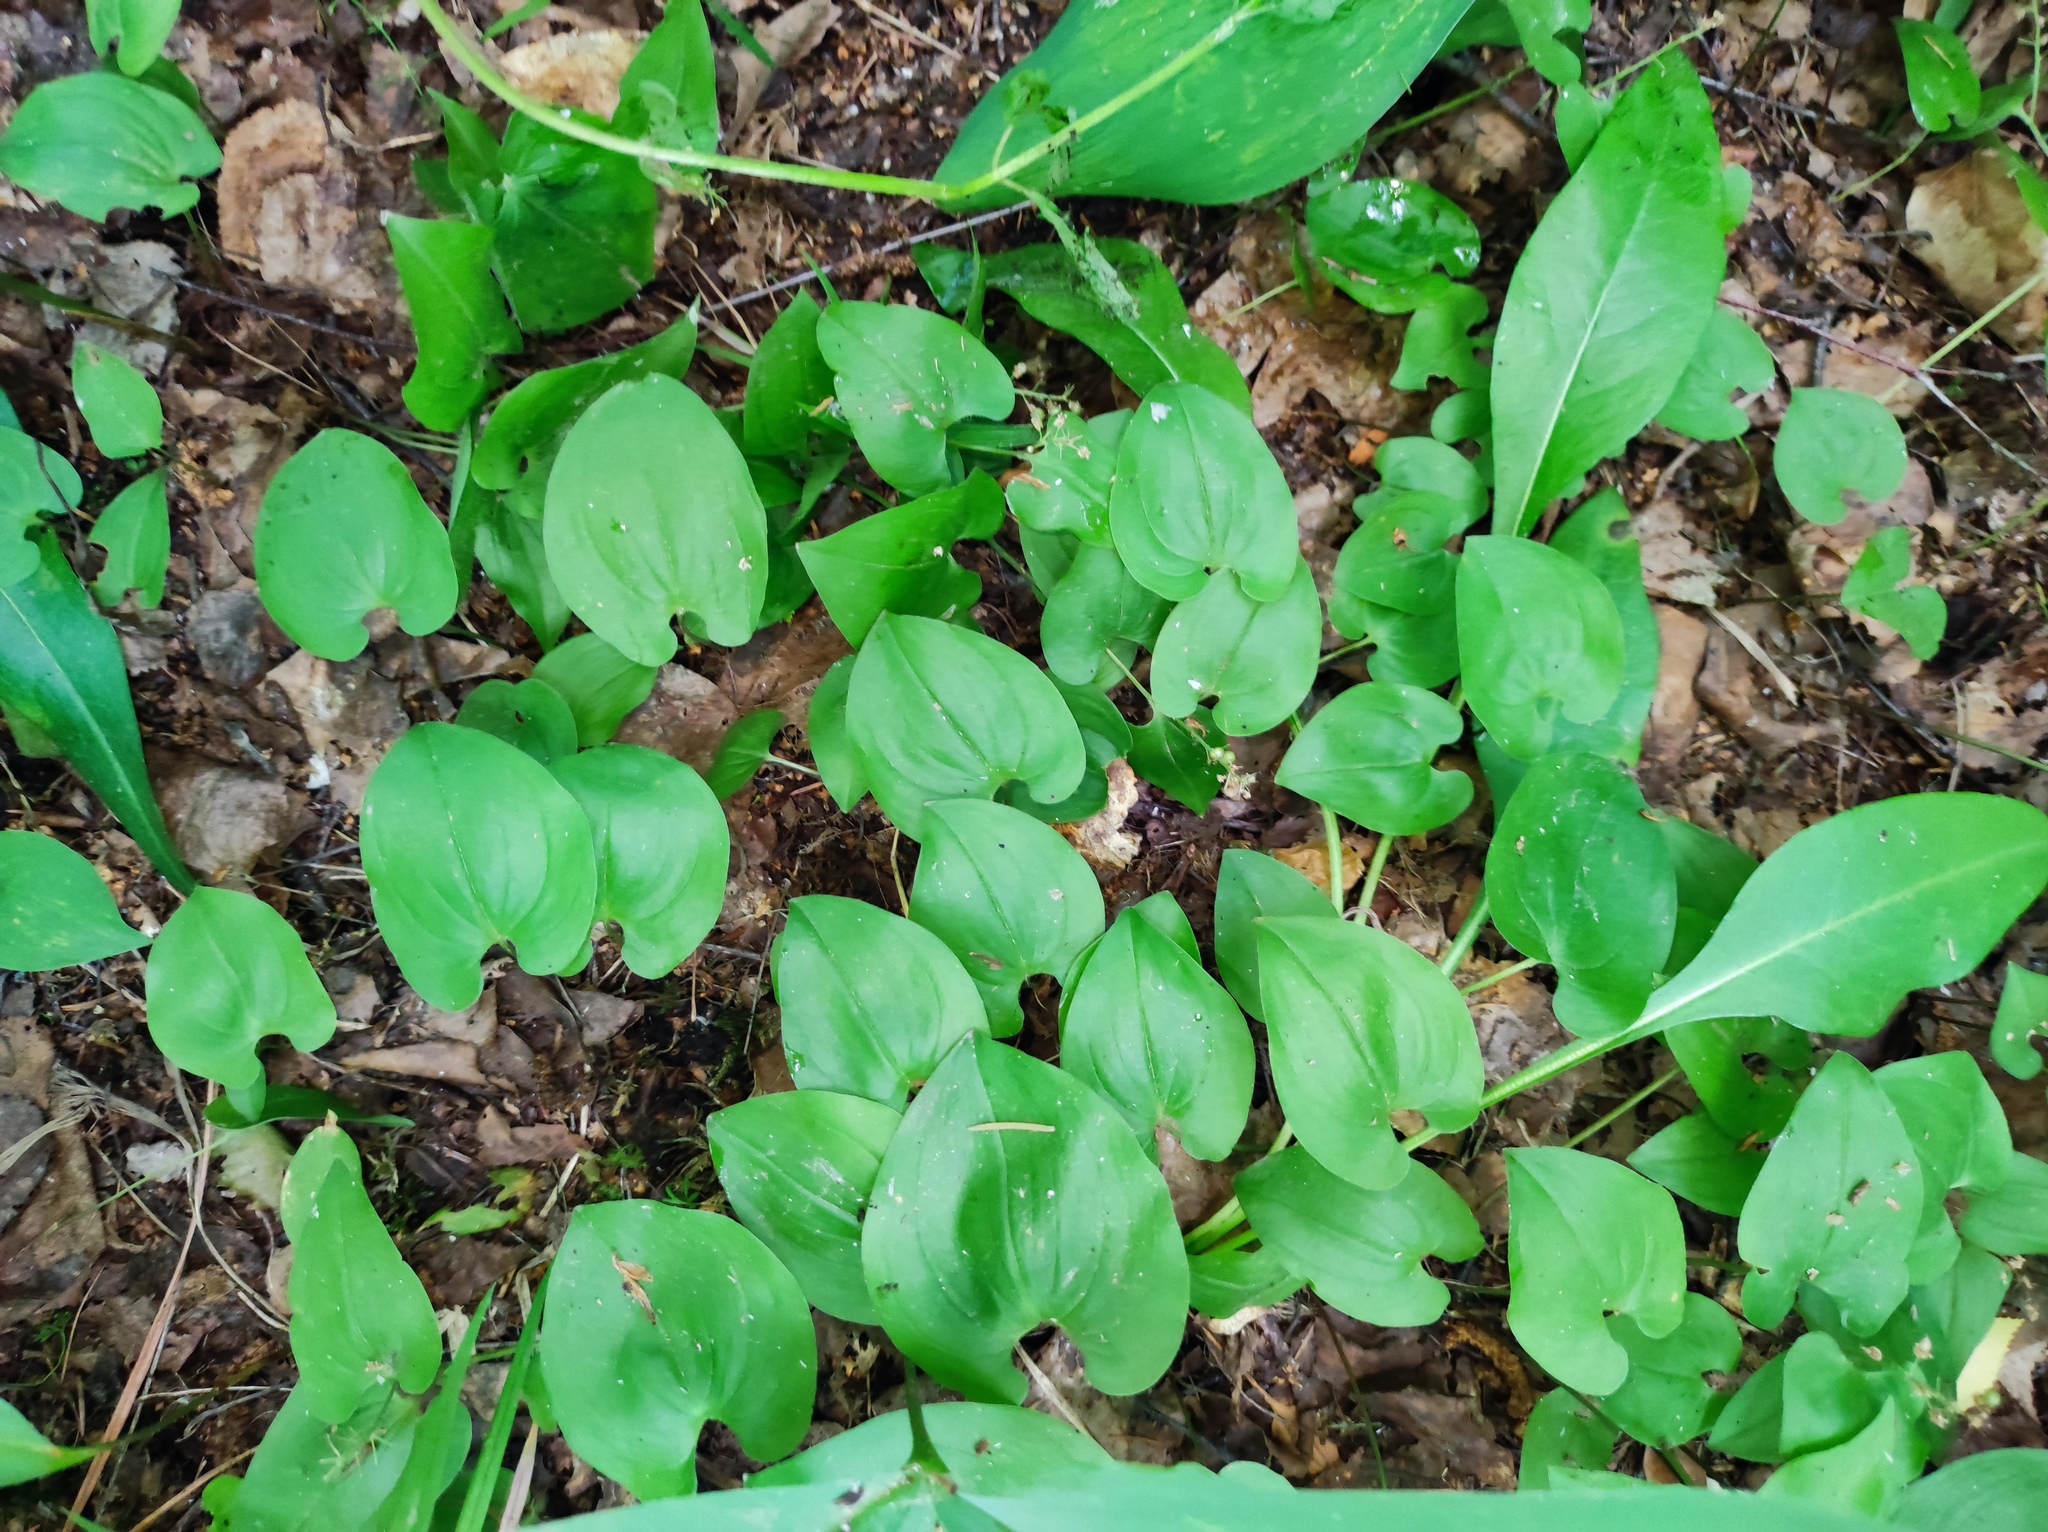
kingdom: Plantae
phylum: Tracheophyta
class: Liliopsida
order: Asparagales
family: Asparagaceae
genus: Maianthemum
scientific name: Maianthemum bifolium
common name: May lily
